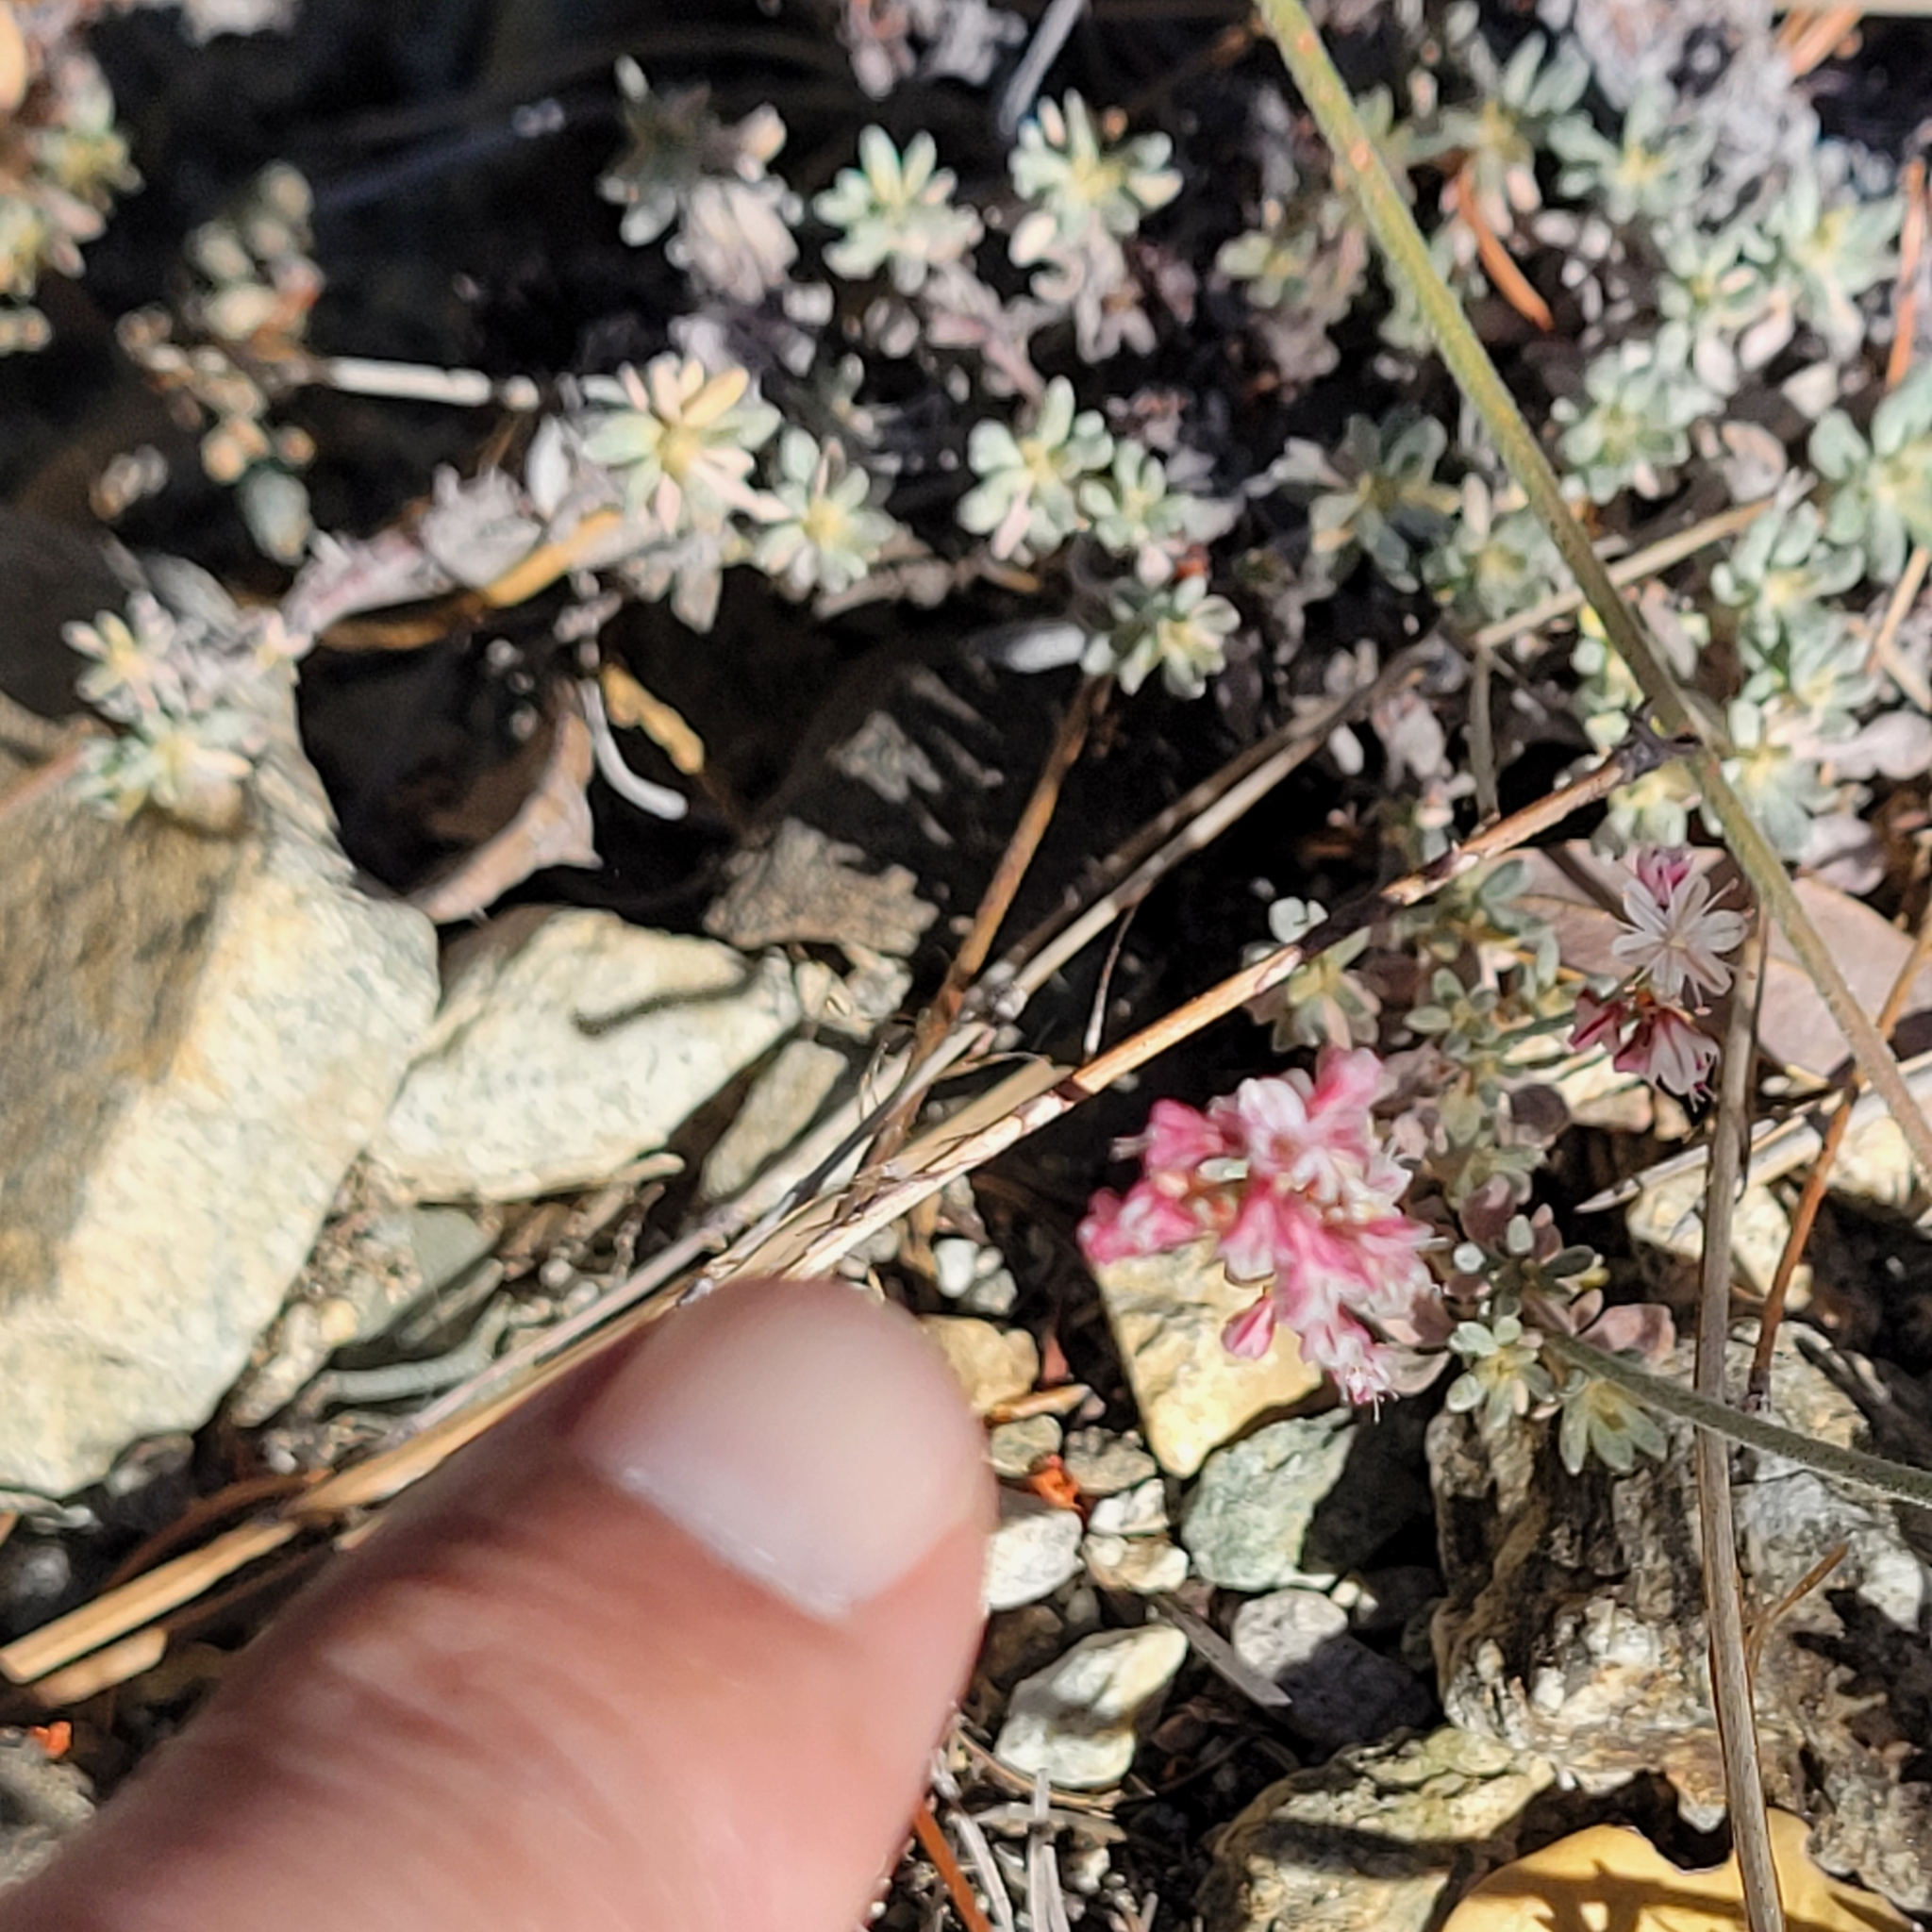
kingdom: Plantae
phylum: Tracheophyta
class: Magnoliopsida
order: Caryophyllales
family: Polygonaceae
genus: Eriogonum
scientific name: Eriogonum wrightii
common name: Bastard-sage
